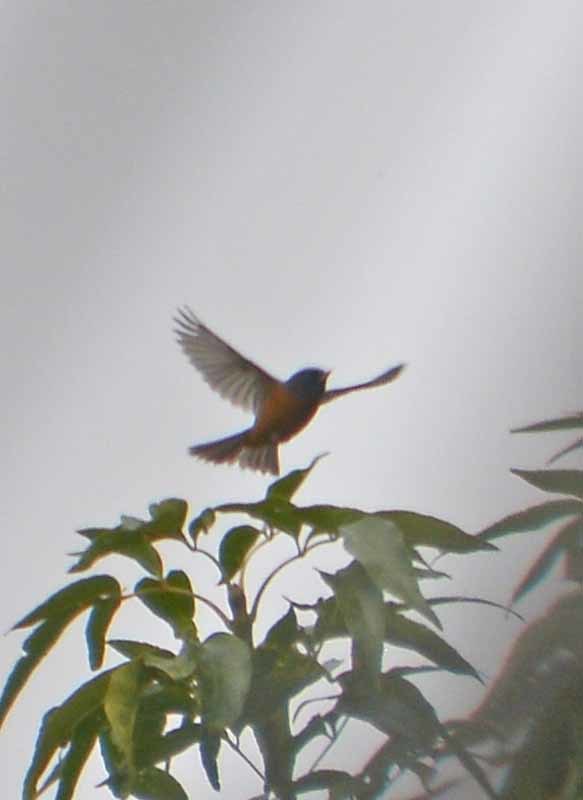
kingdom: Animalia
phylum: Chordata
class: Aves
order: Passeriformes
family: Thraupidae
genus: Diglossa
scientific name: Diglossa baritula
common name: Cinnamon-bellied flowerpiercer
